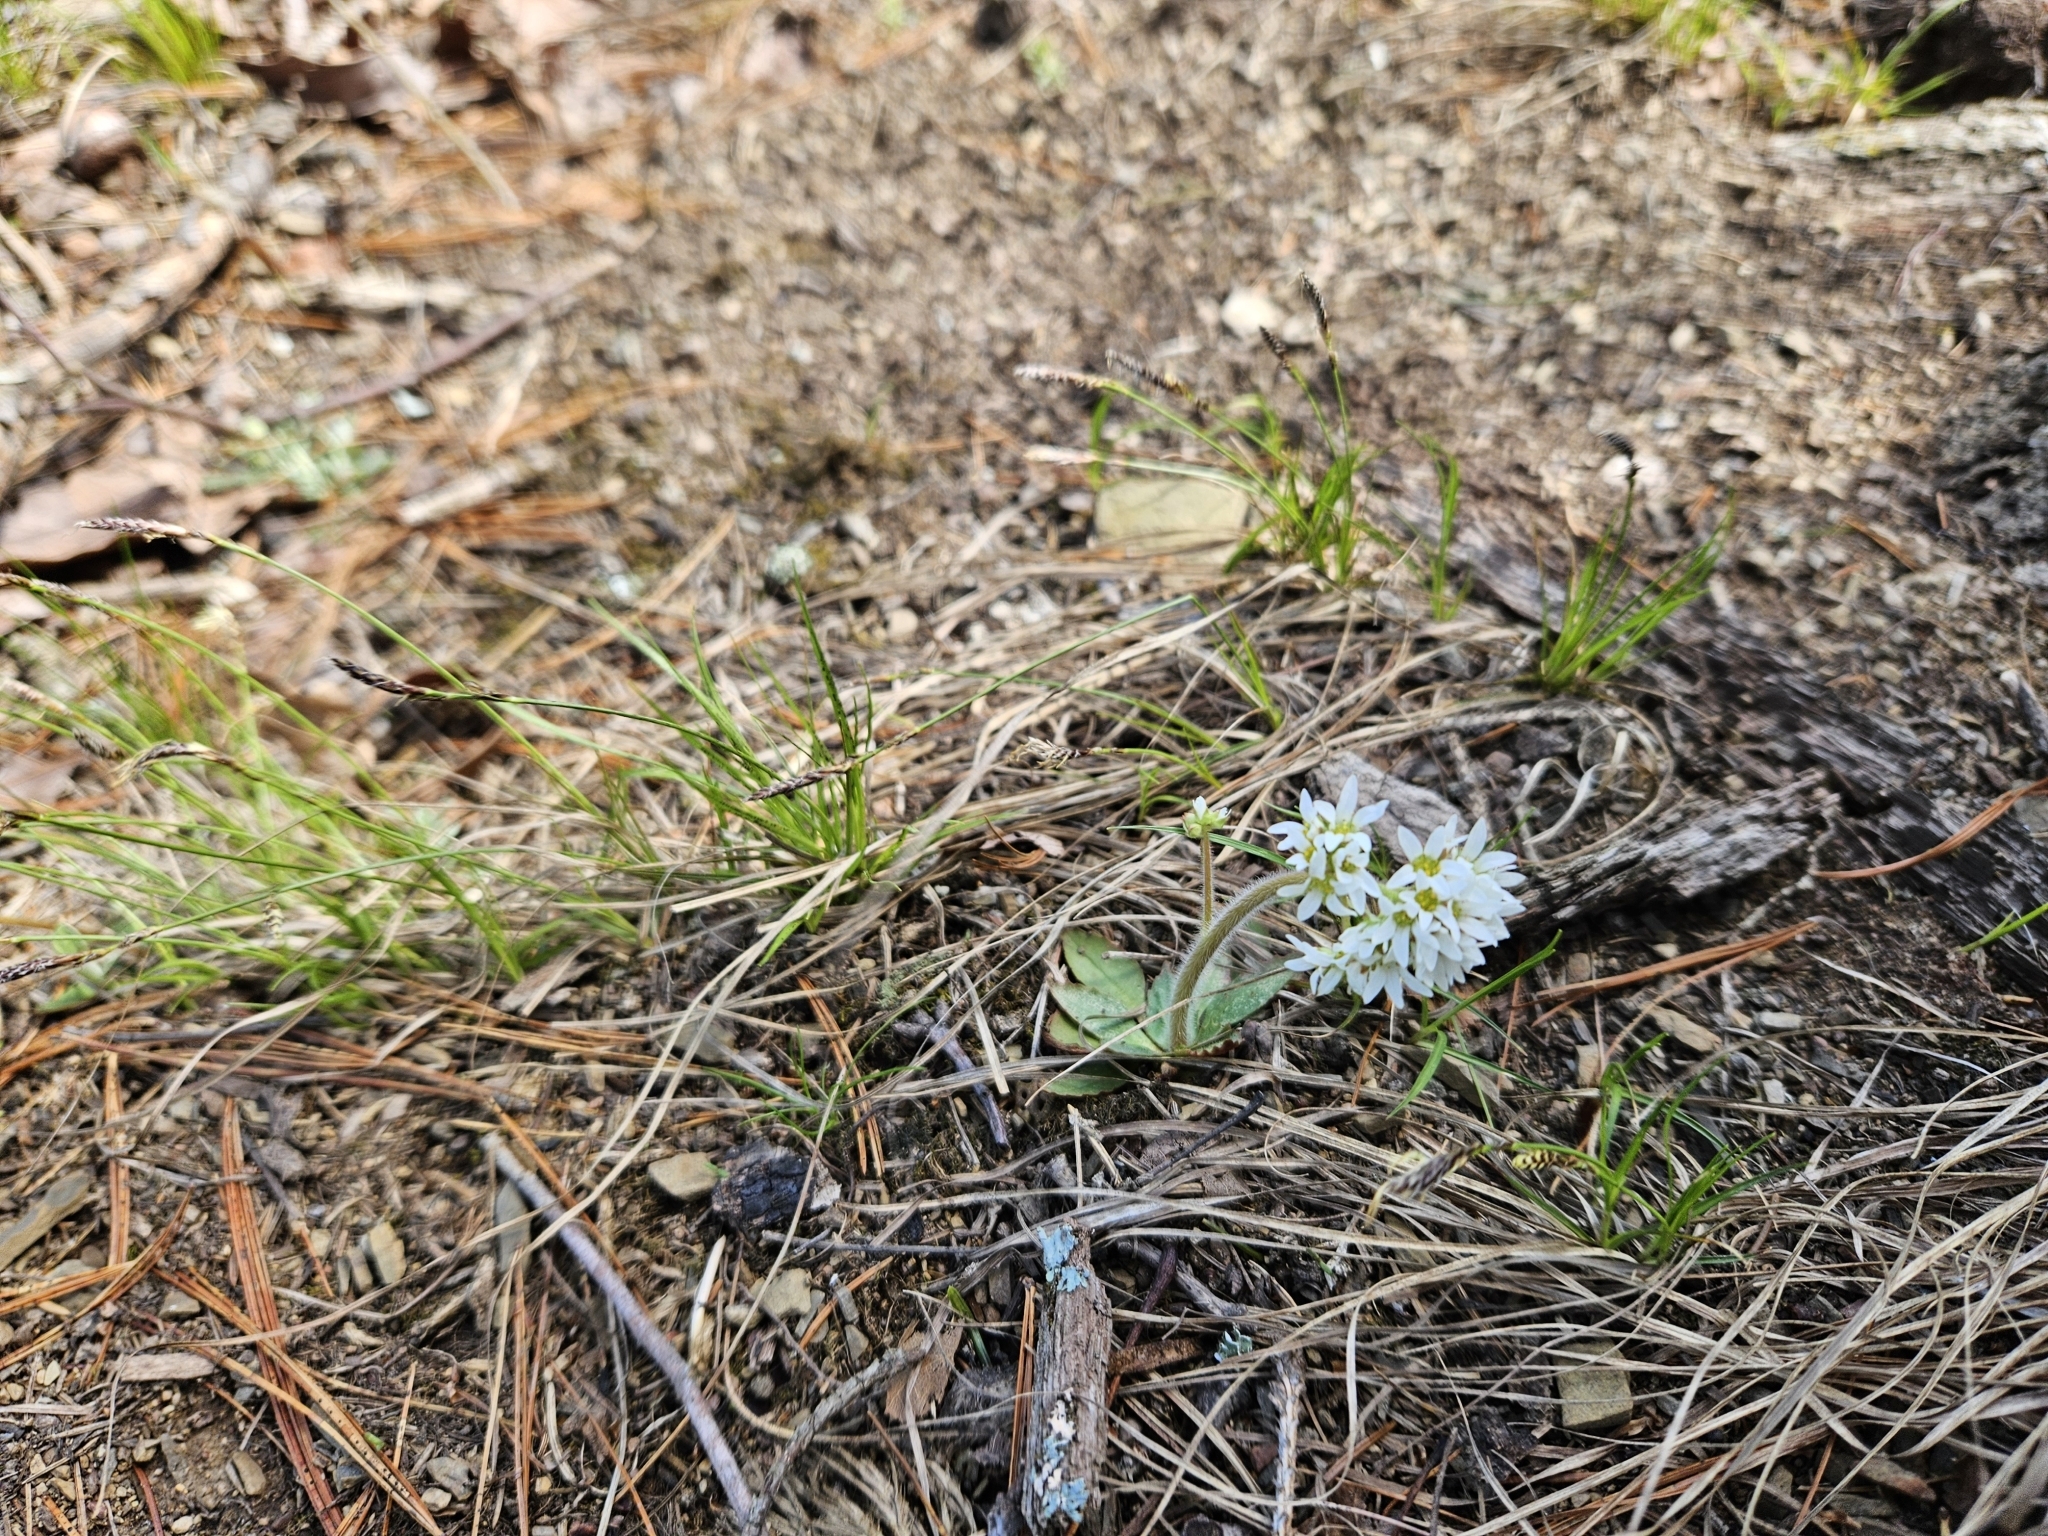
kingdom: Plantae
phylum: Tracheophyta
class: Magnoliopsida
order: Saxifragales
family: Saxifragaceae
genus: Micranthes
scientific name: Micranthes virginiensis
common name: Early saxifrage
